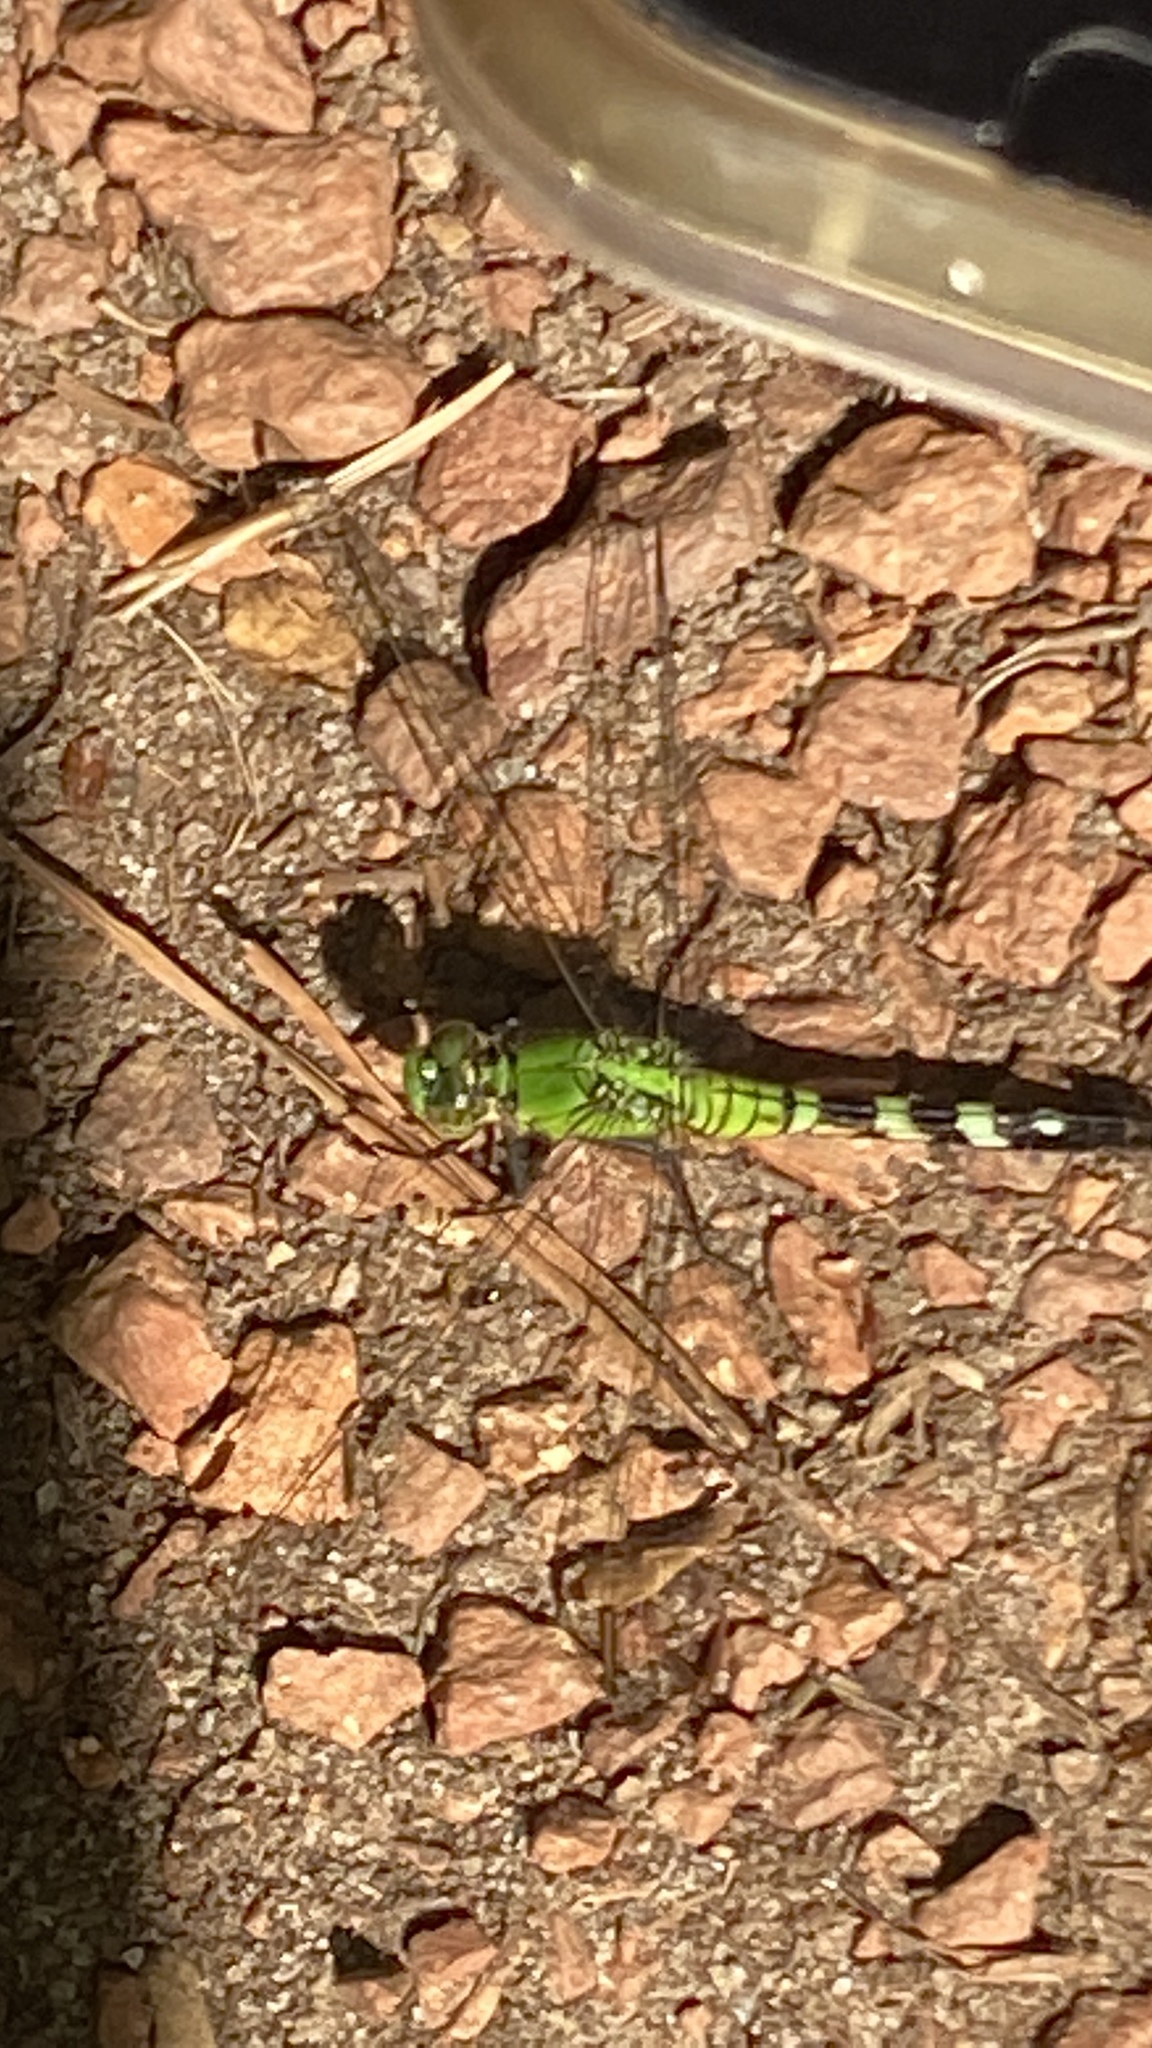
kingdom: Animalia
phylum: Arthropoda
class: Insecta
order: Odonata
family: Libellulidae
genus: Erythemis
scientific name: Erythemis simplicicollis
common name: Eastern pondhawk
